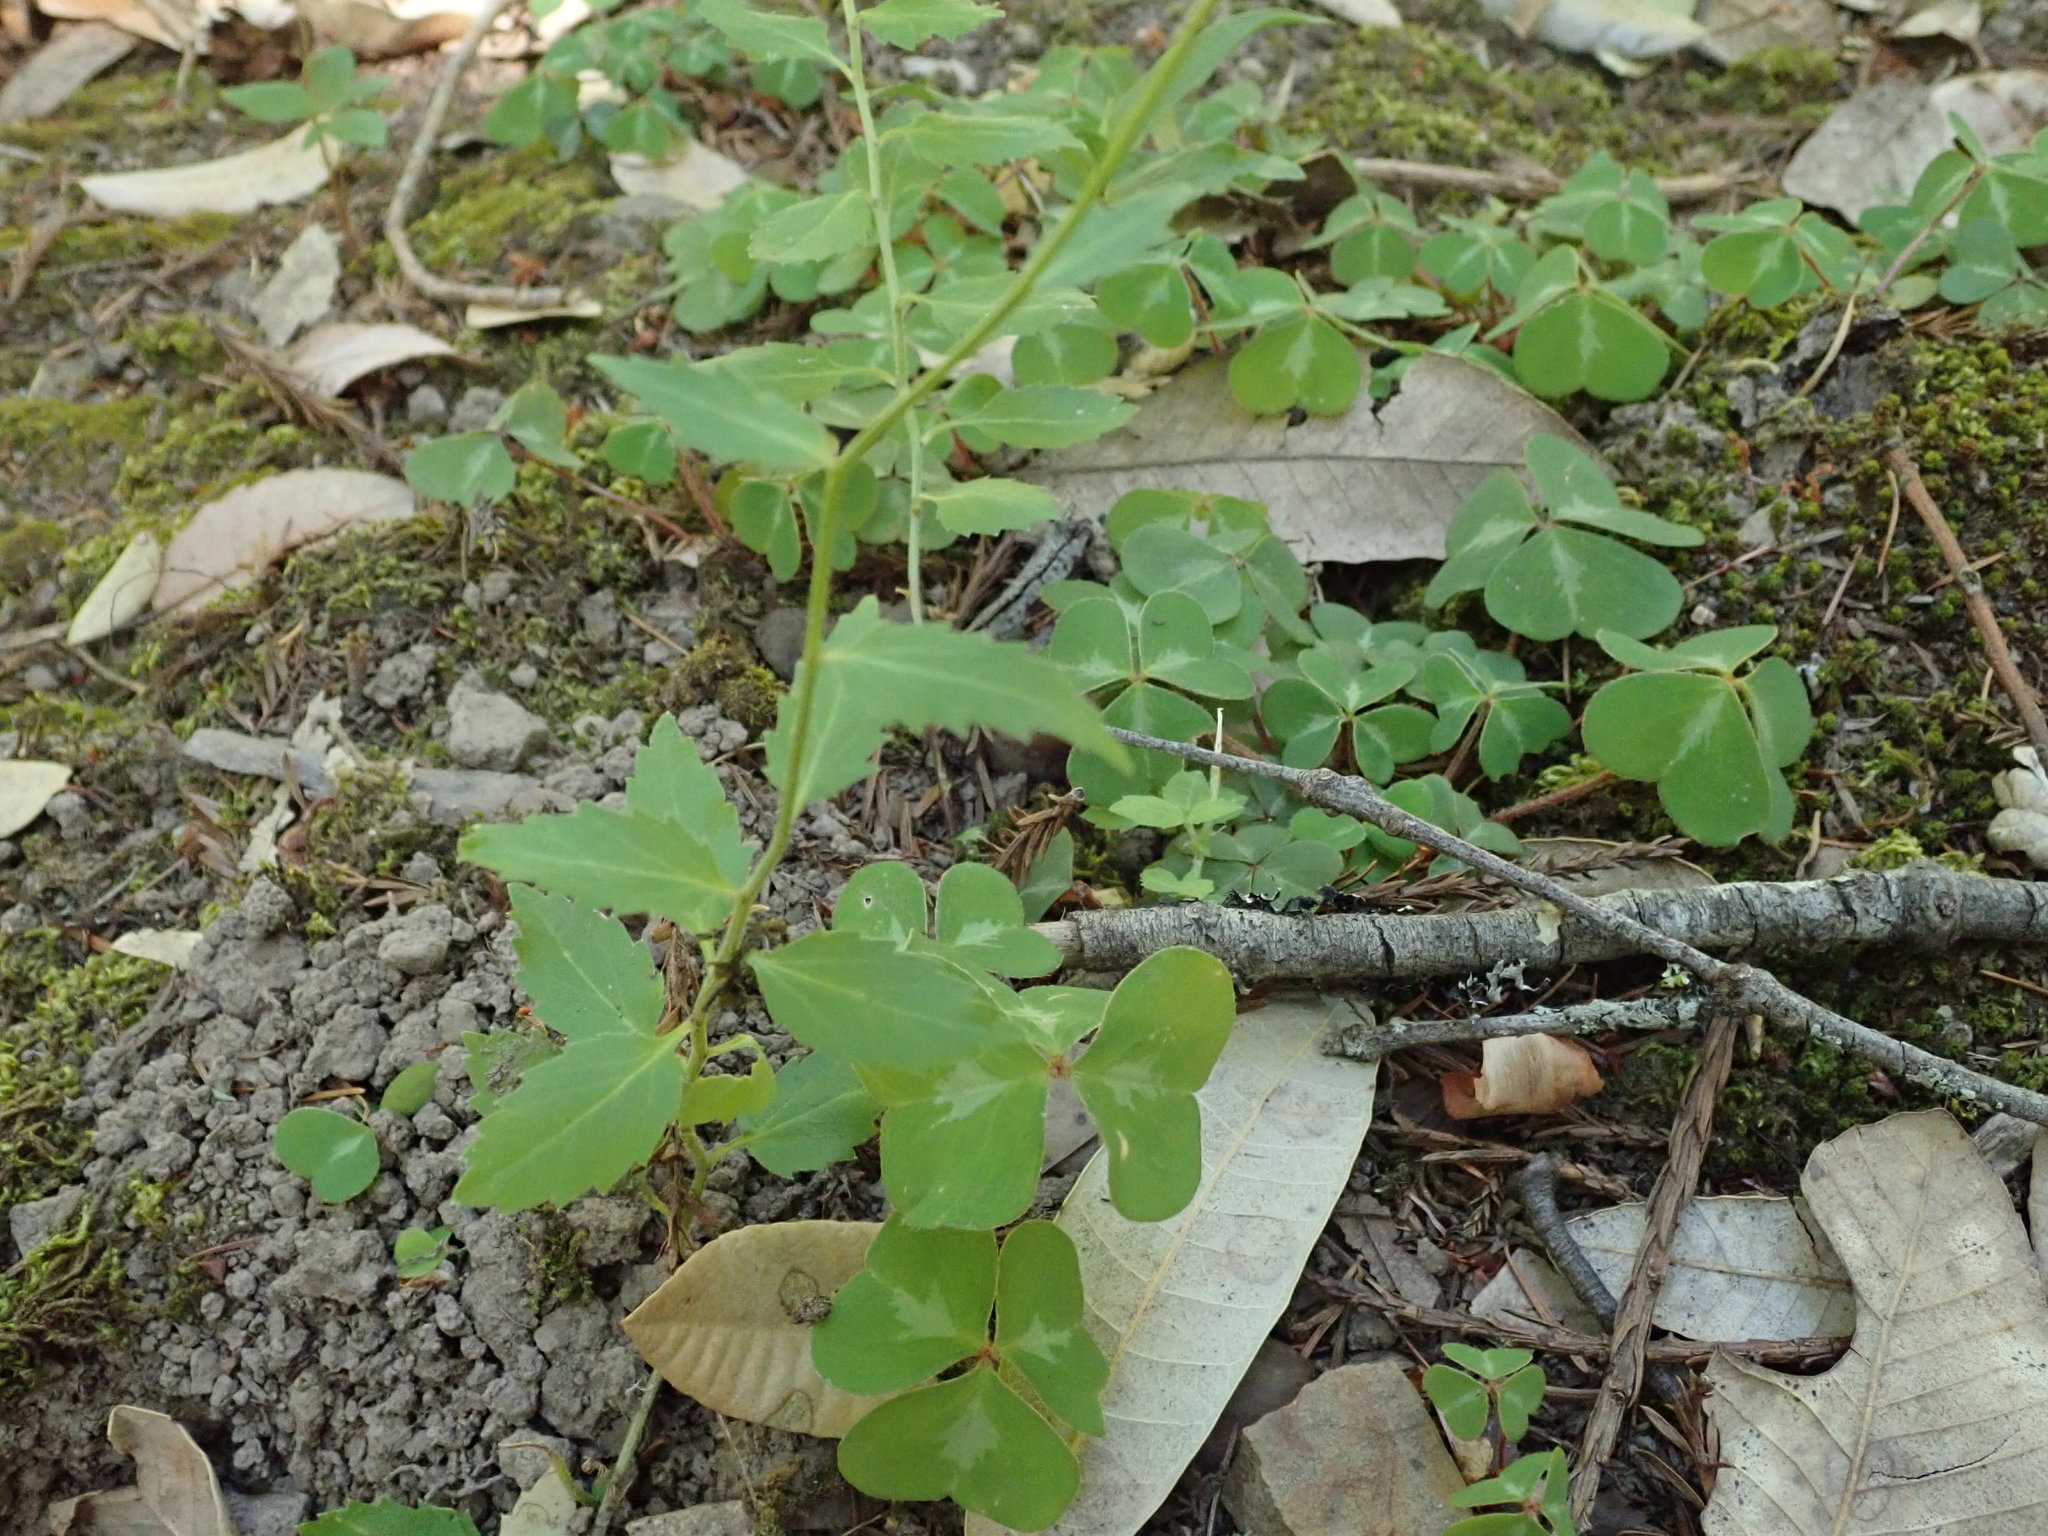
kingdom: Plantae
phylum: Tracheophyta
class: Magnoliopsida
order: Asterales
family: Campanulaceae
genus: Smithiastrum
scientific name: Smithiastrum prenanthoides
